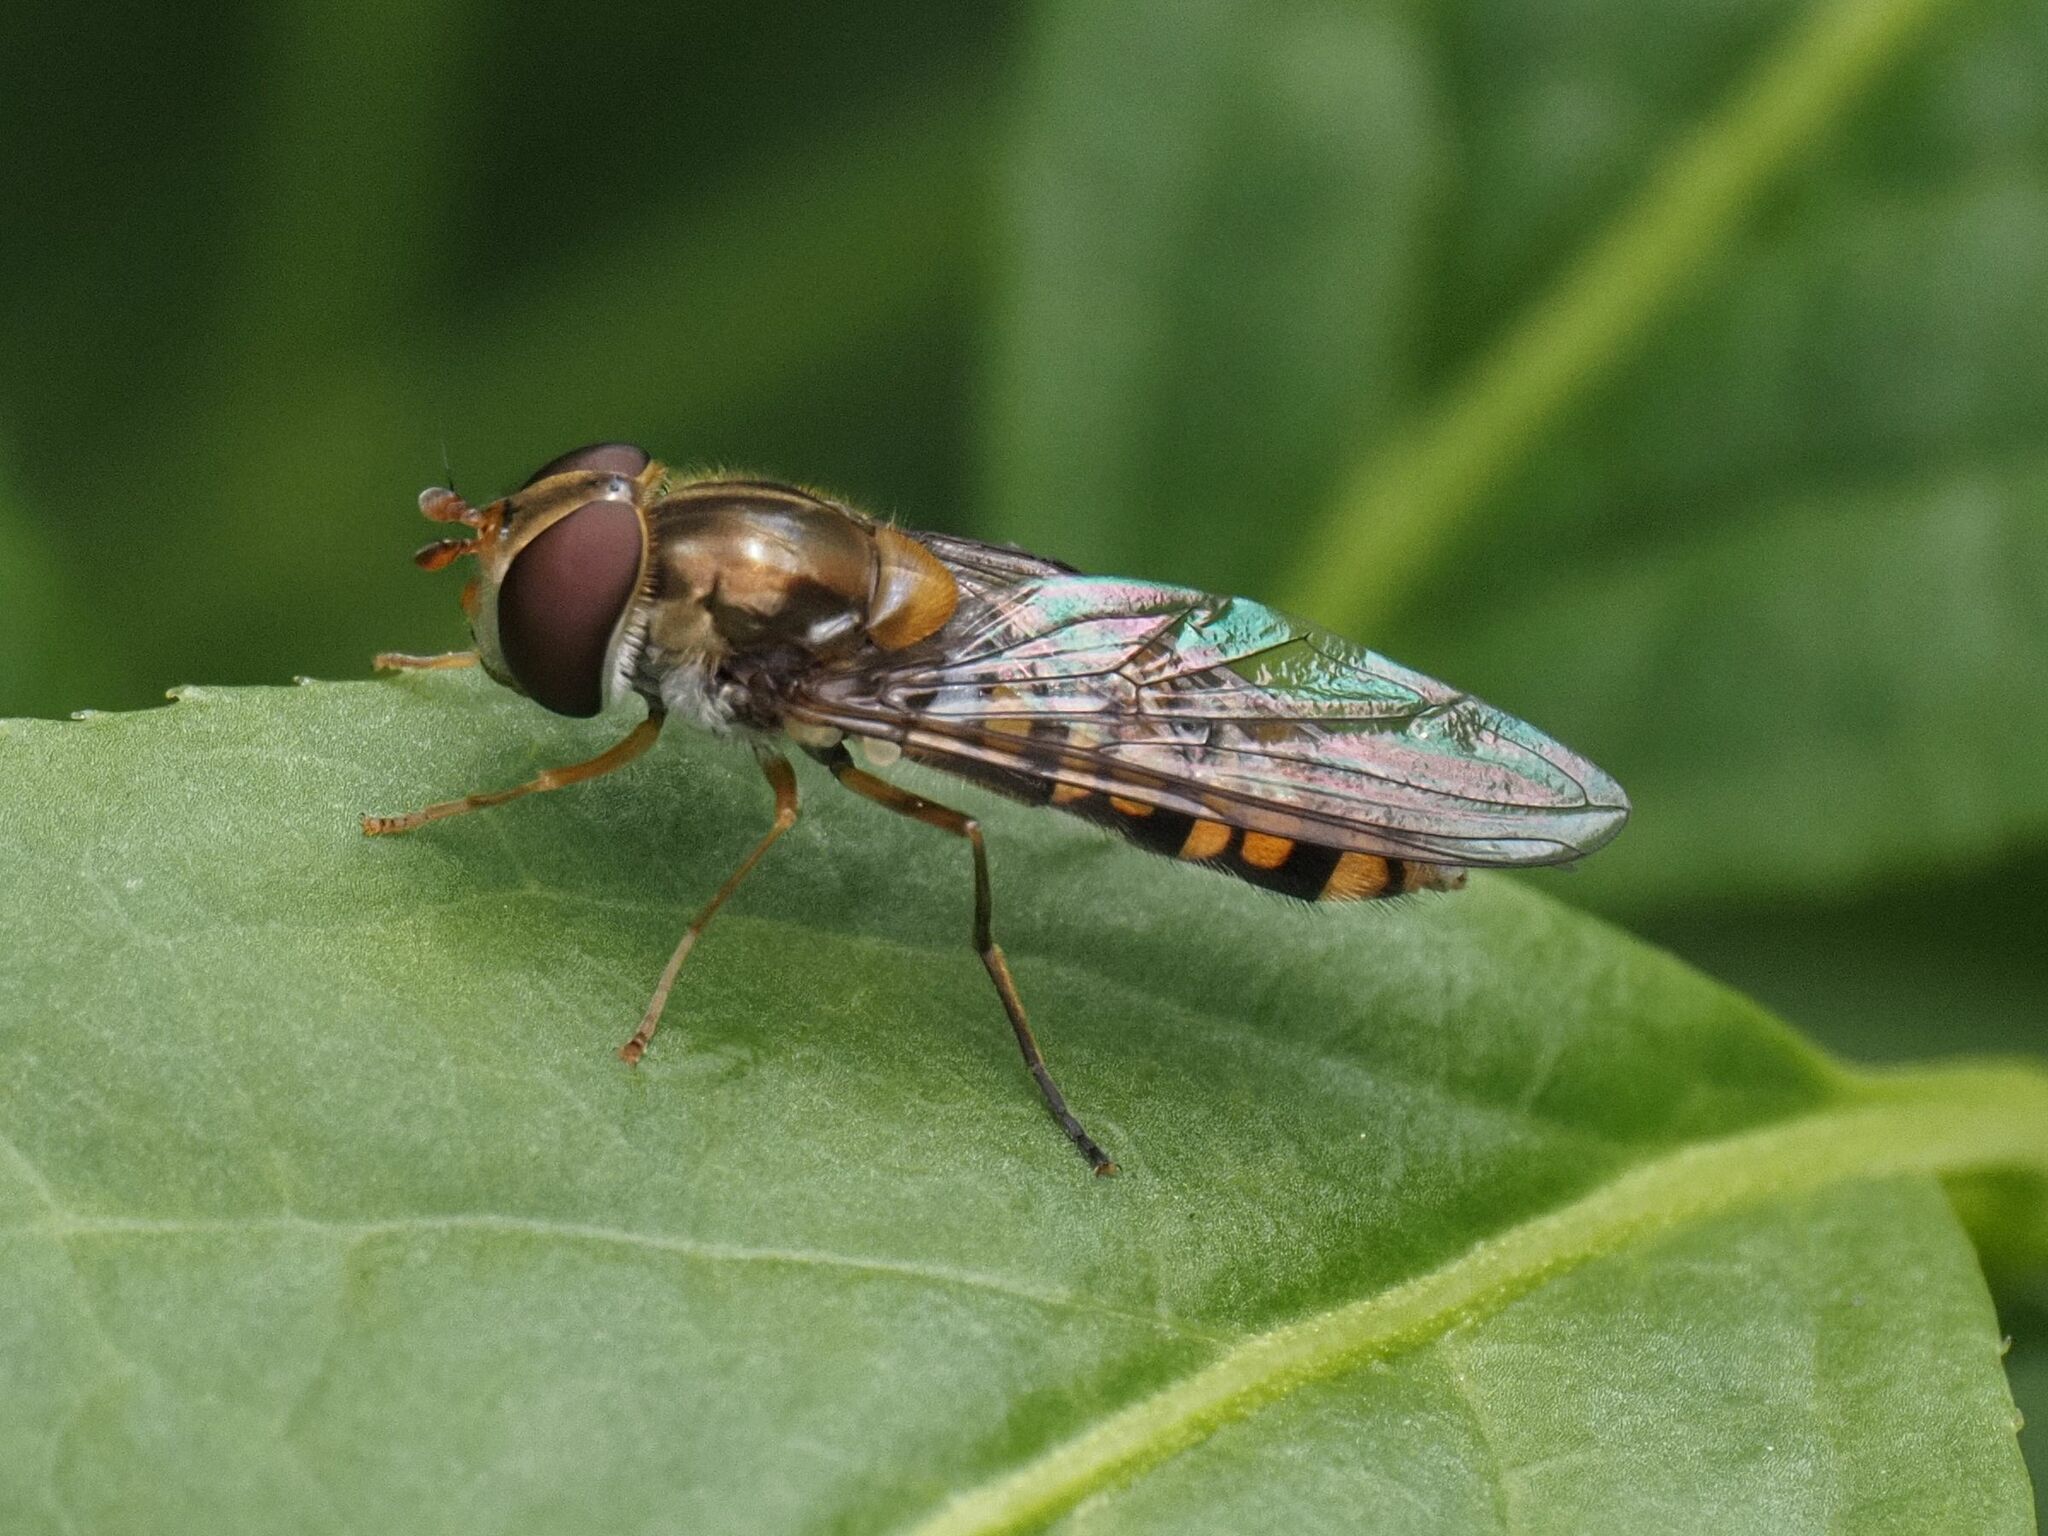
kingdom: Animalia
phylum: Arthropoda
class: Insecta
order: Diptera
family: Syrphidae
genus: Episyrphus
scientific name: Episyrphus balteatus
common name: Marmalade hoverfly
